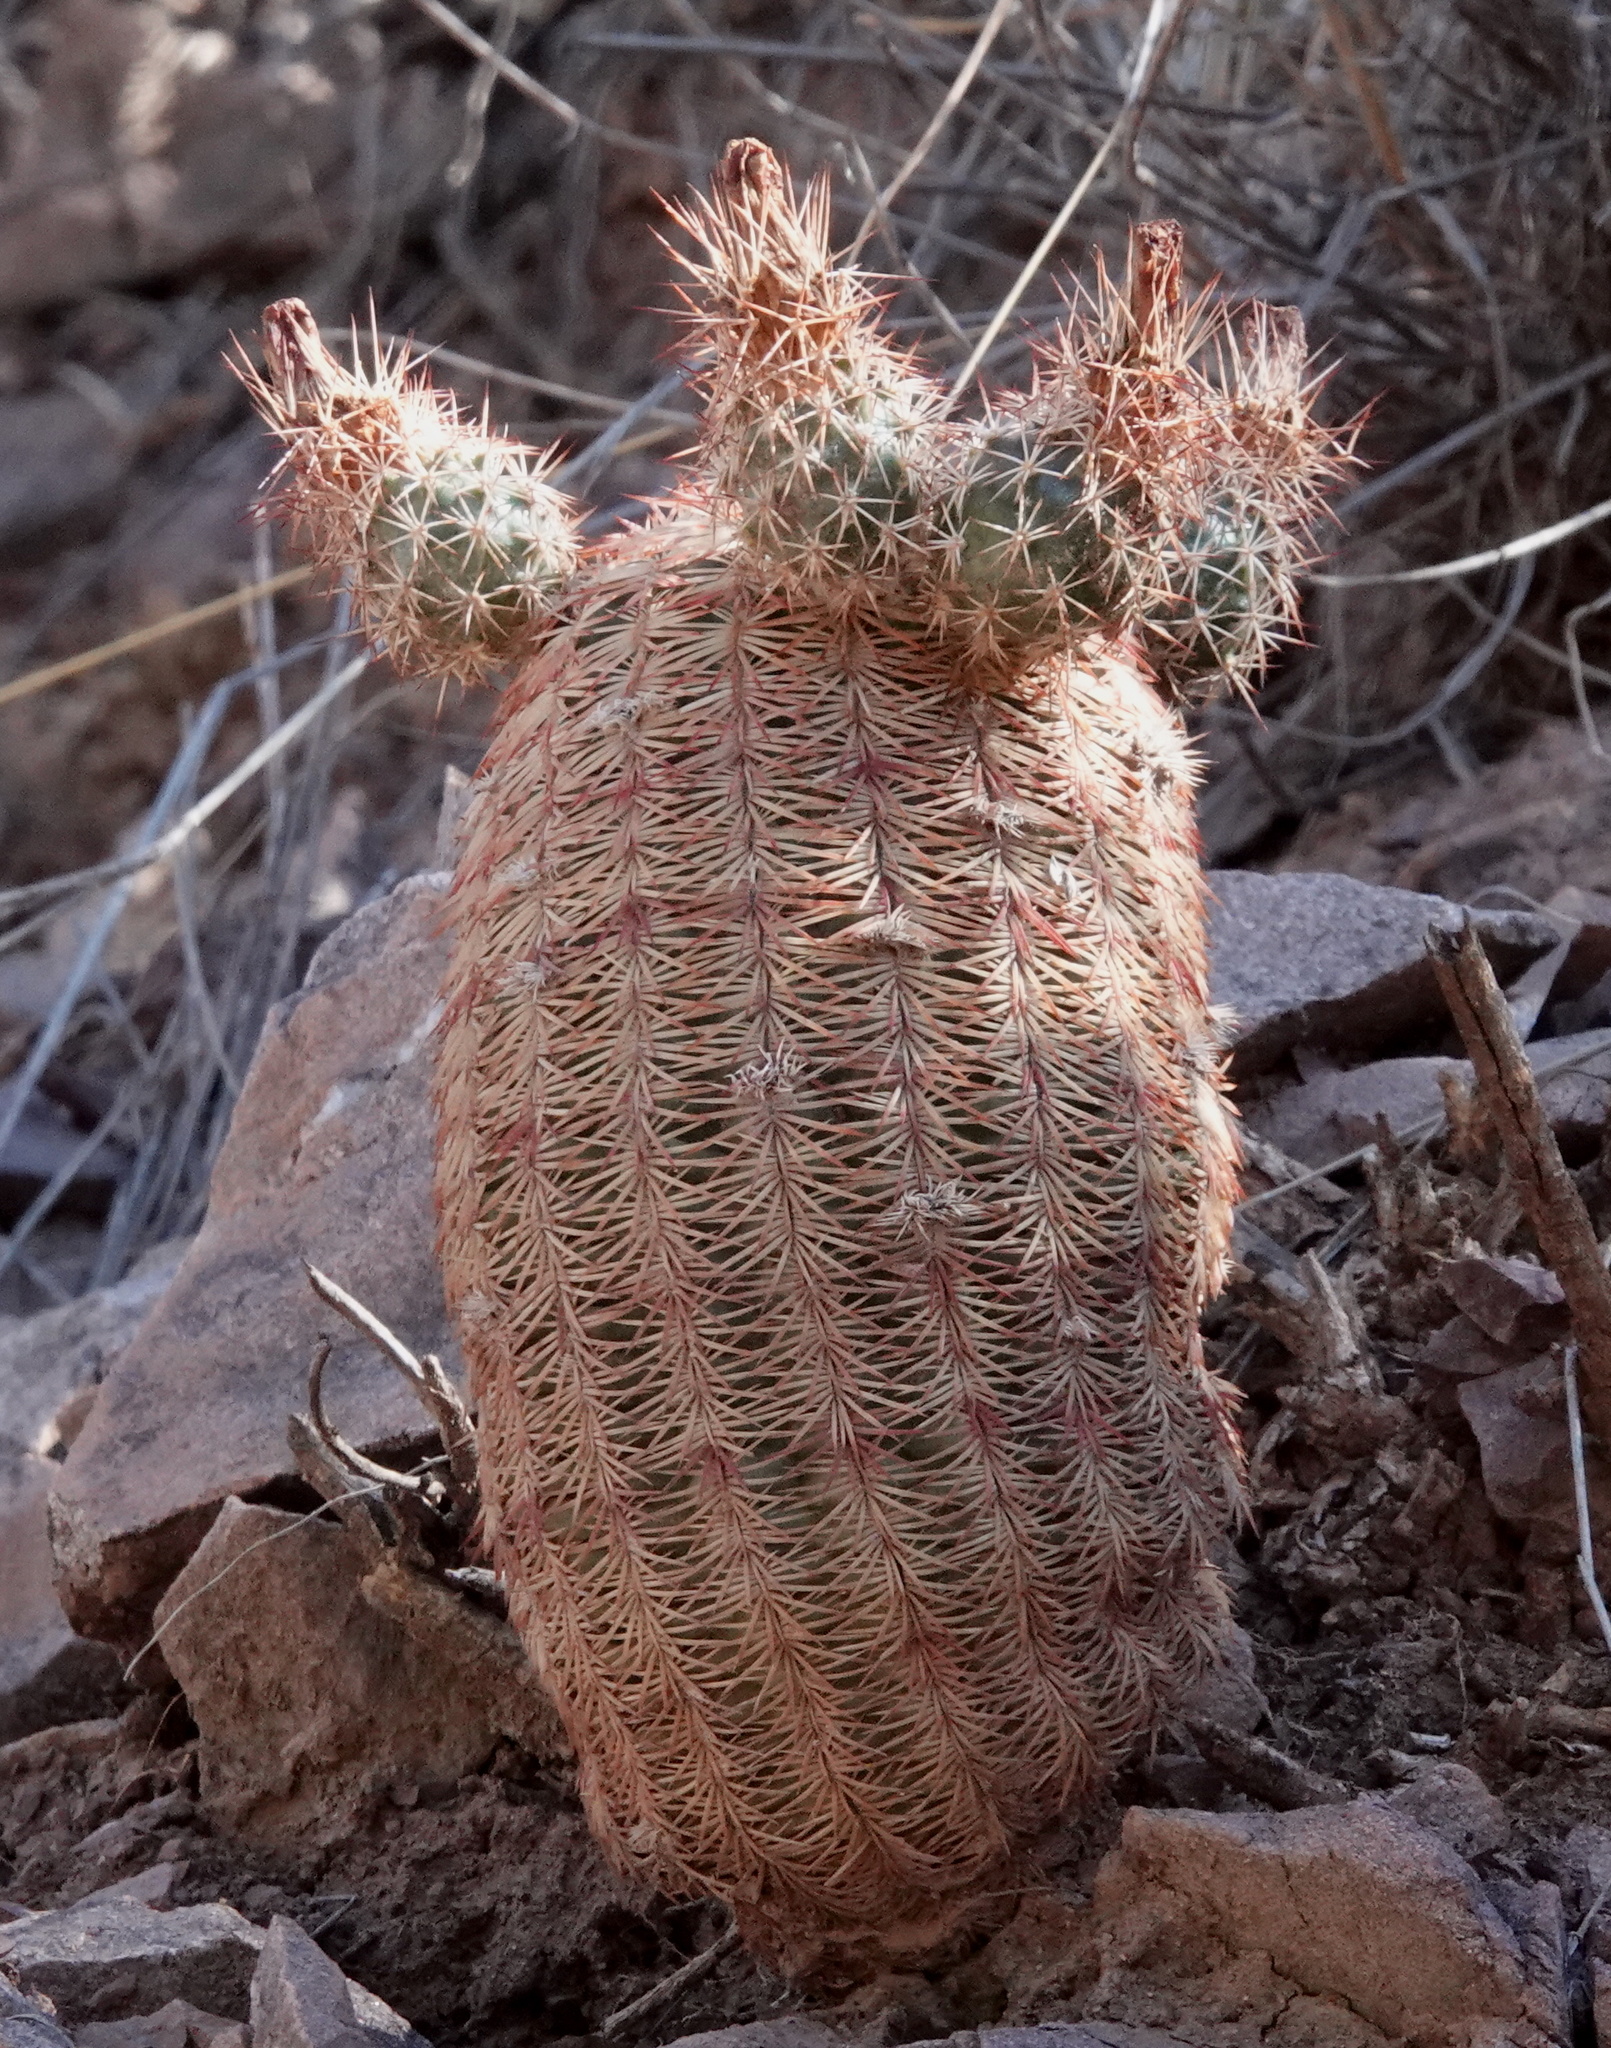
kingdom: Plantae
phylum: Tracheophyta
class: Magnoliopsida
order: Caryophyllales
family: Cactaceae
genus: Echinocereus
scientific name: Echinocereus rigidissimus
